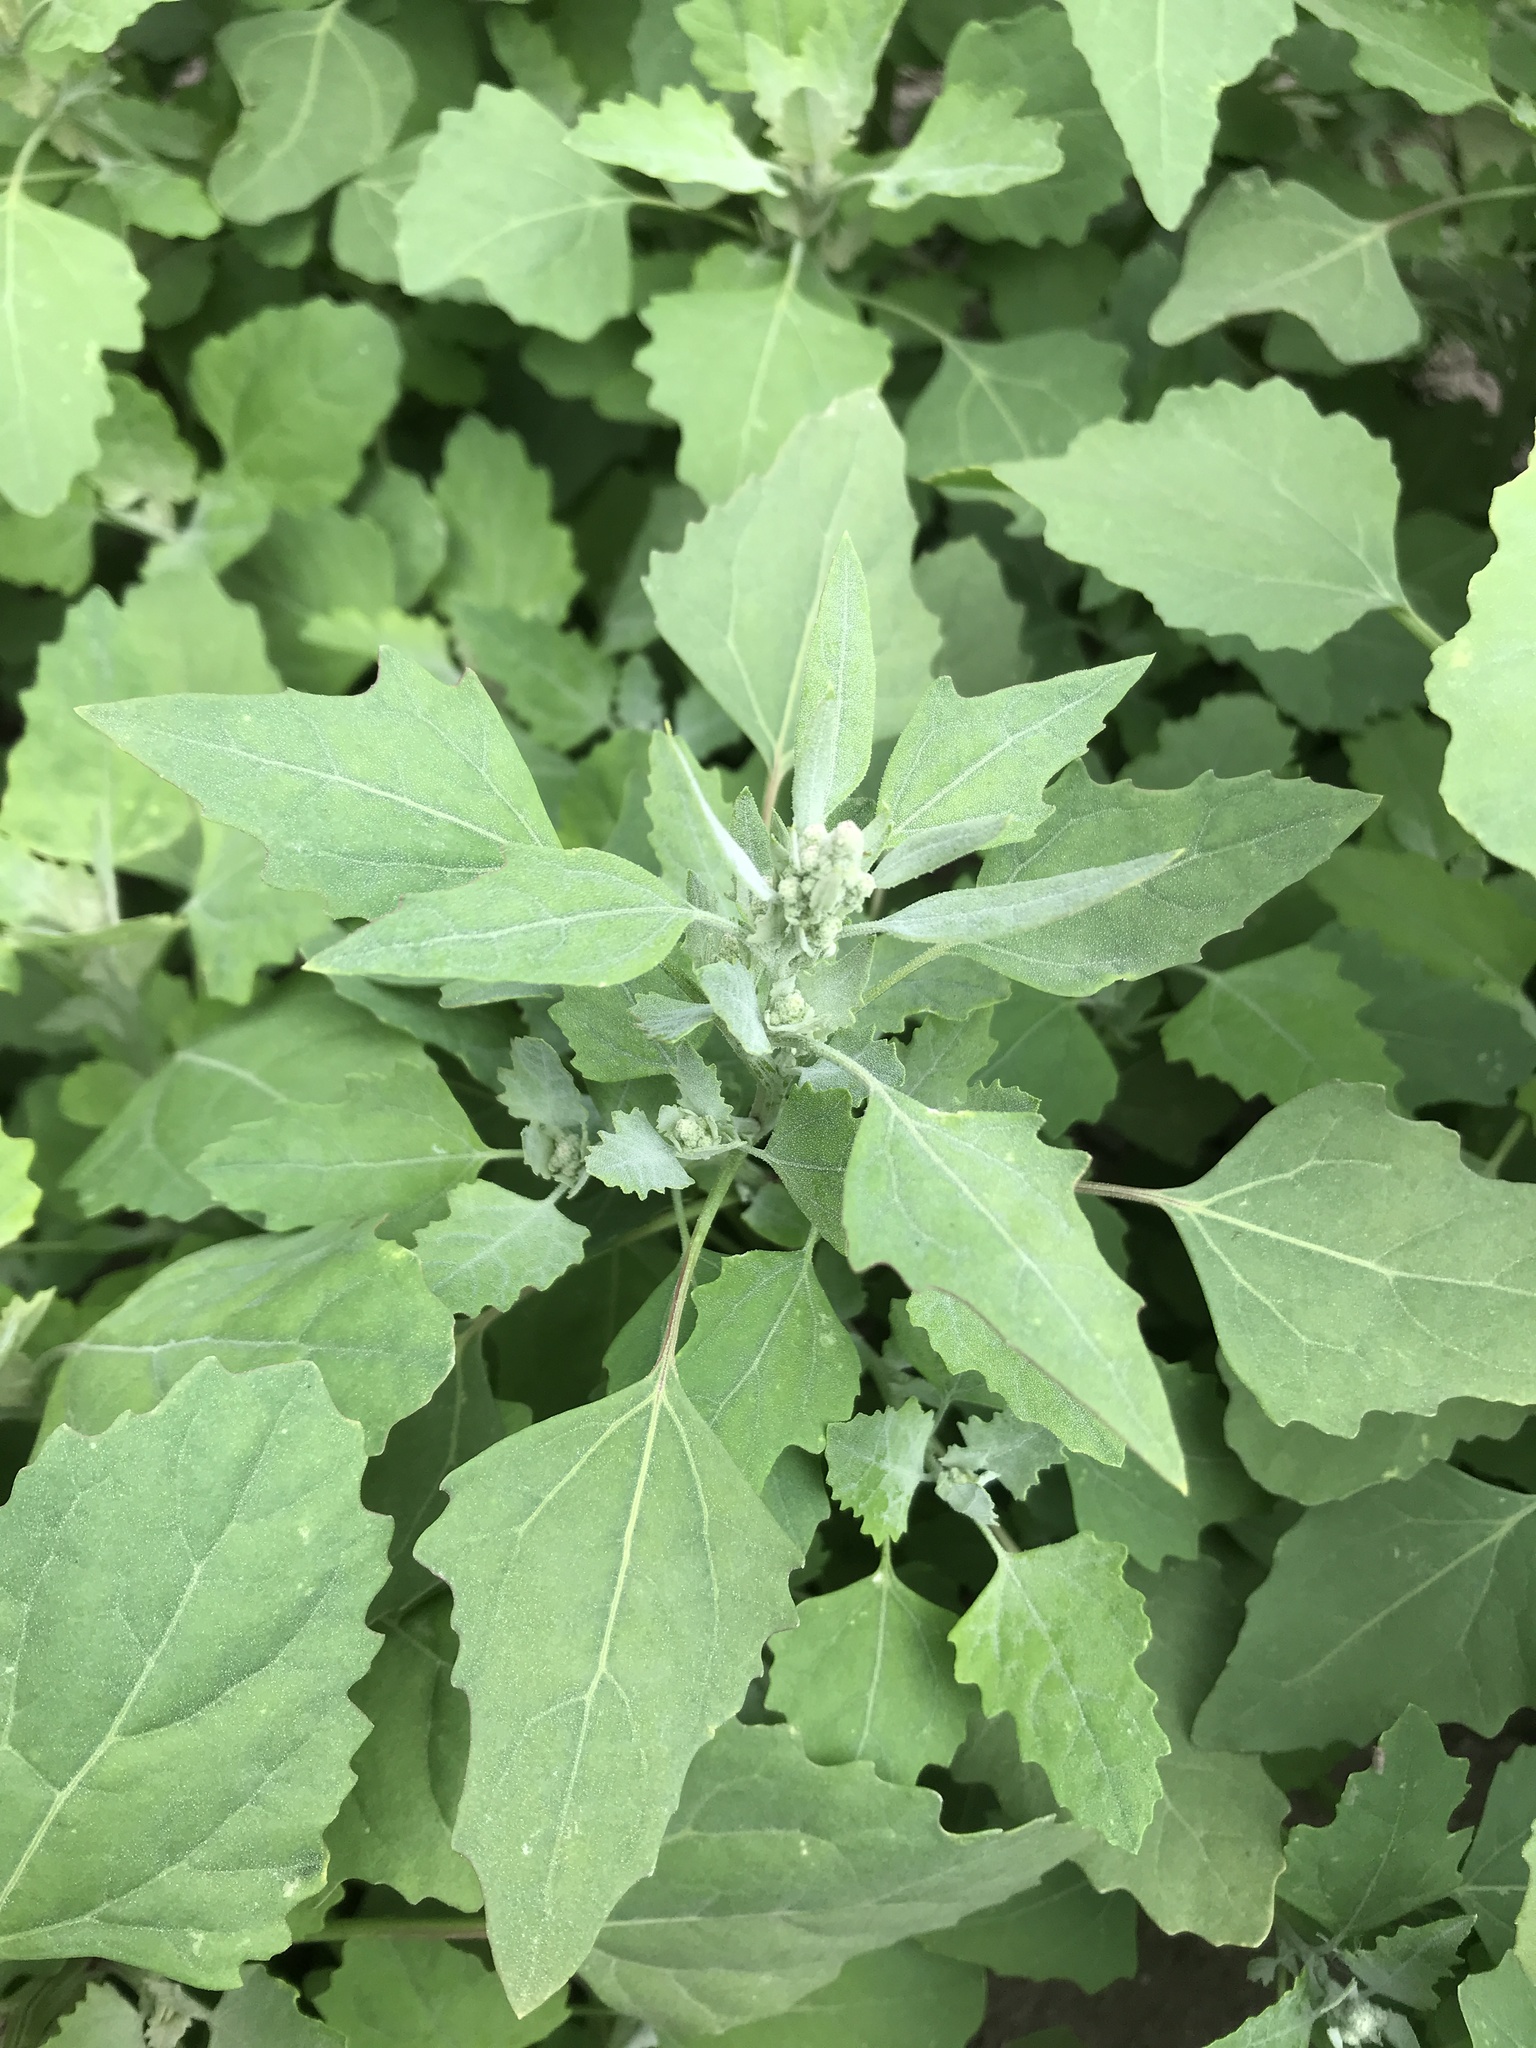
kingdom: Plantae
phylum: Tracheophyta
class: Magnoliopsida
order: Caryophyllales
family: Amaranthaceae
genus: Chenopodium
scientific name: Chenopodium album
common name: Fat-hen
